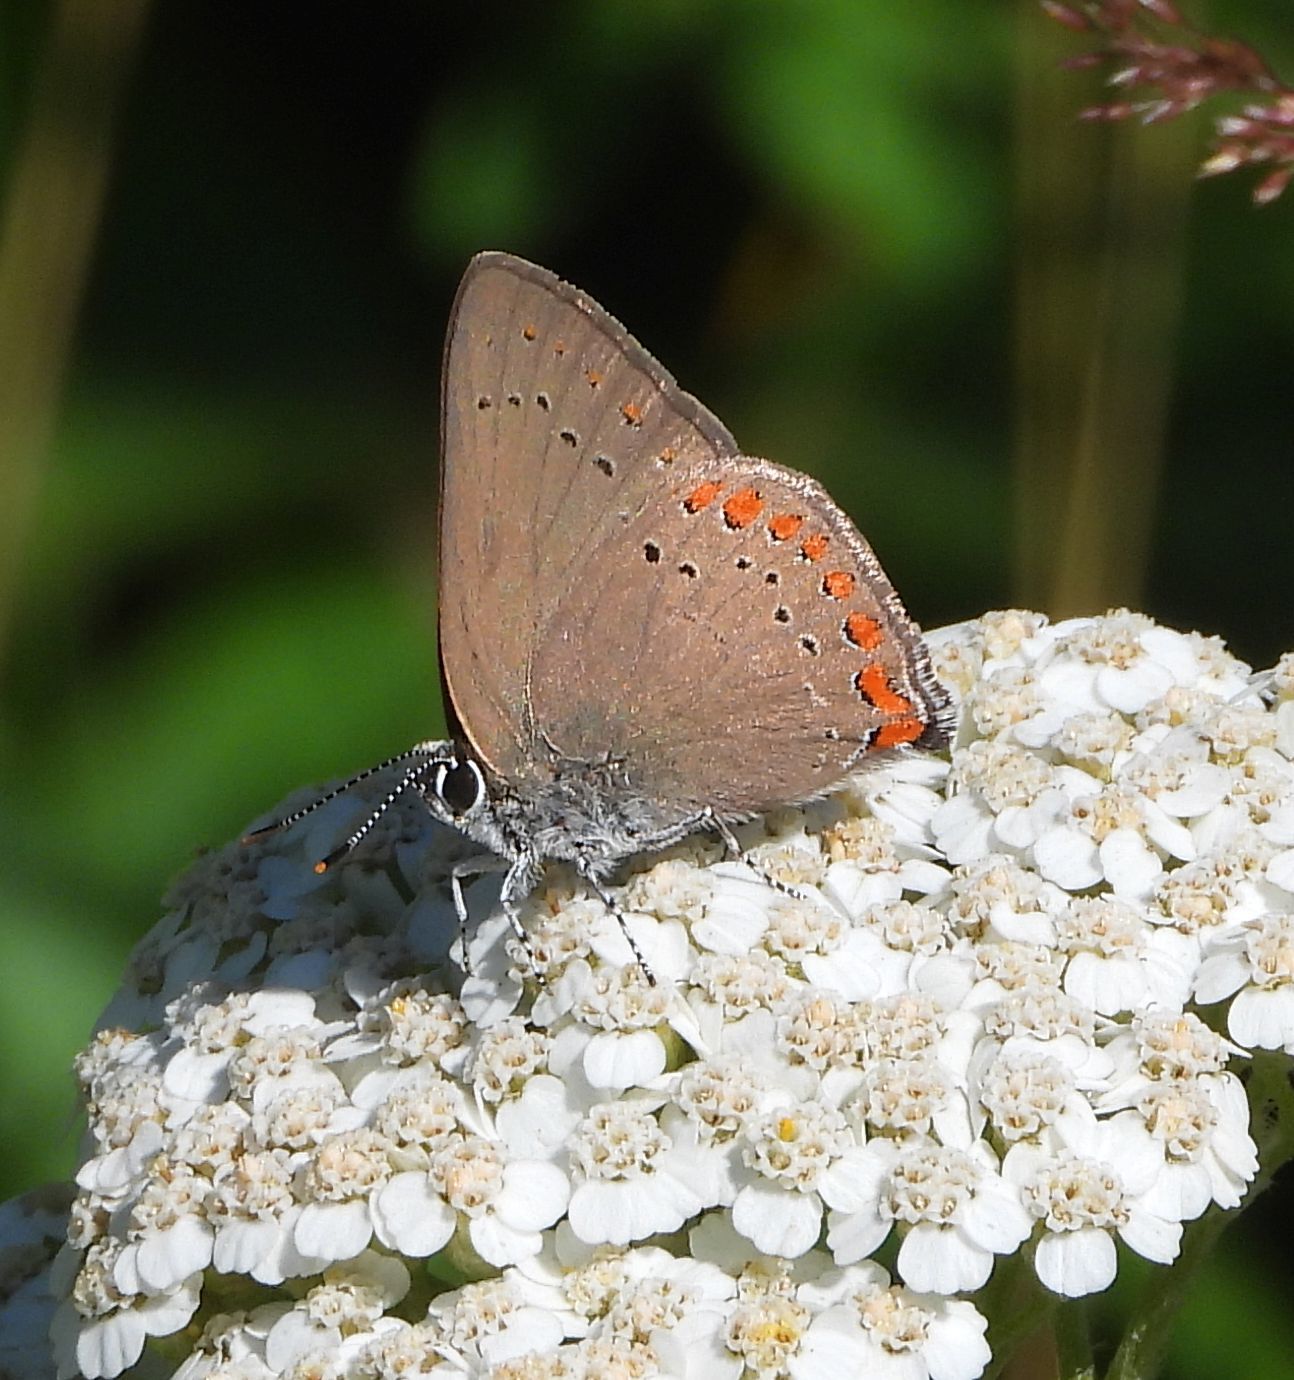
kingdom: Animalia
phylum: Arthropoda
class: Insecta
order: Lepidoptera
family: Lycaenidae
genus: Harkenclenus
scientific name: Harkenclenus titus
